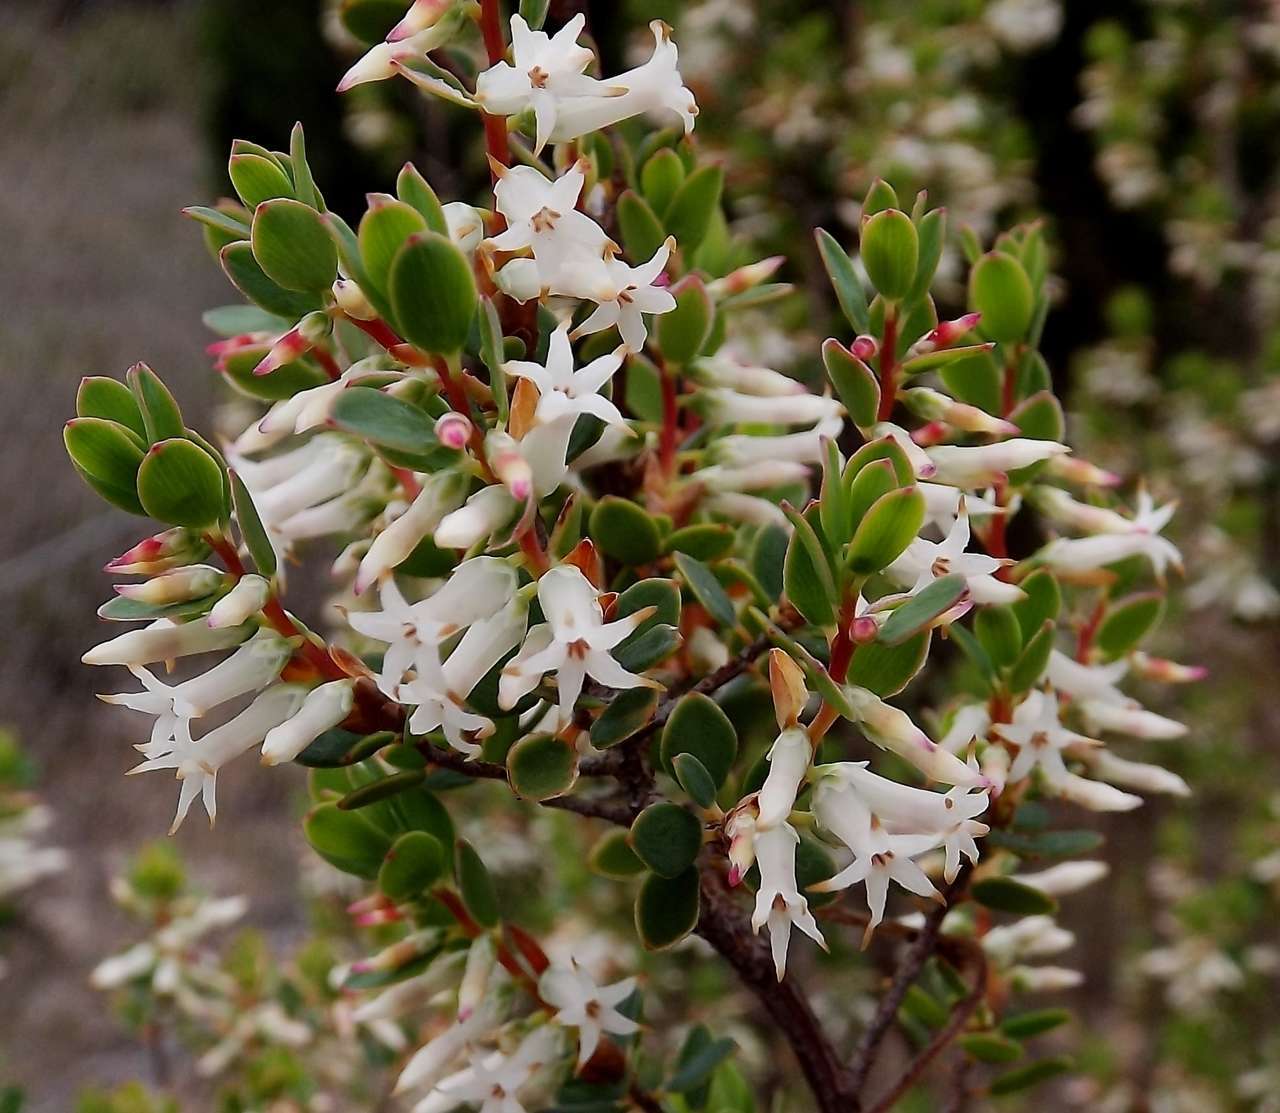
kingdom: Plantae
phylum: Tracheophyta
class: Magnoliopsida
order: Ericales
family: Ericaceae
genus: Brachyloma
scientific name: Brachyloma daphnoides
